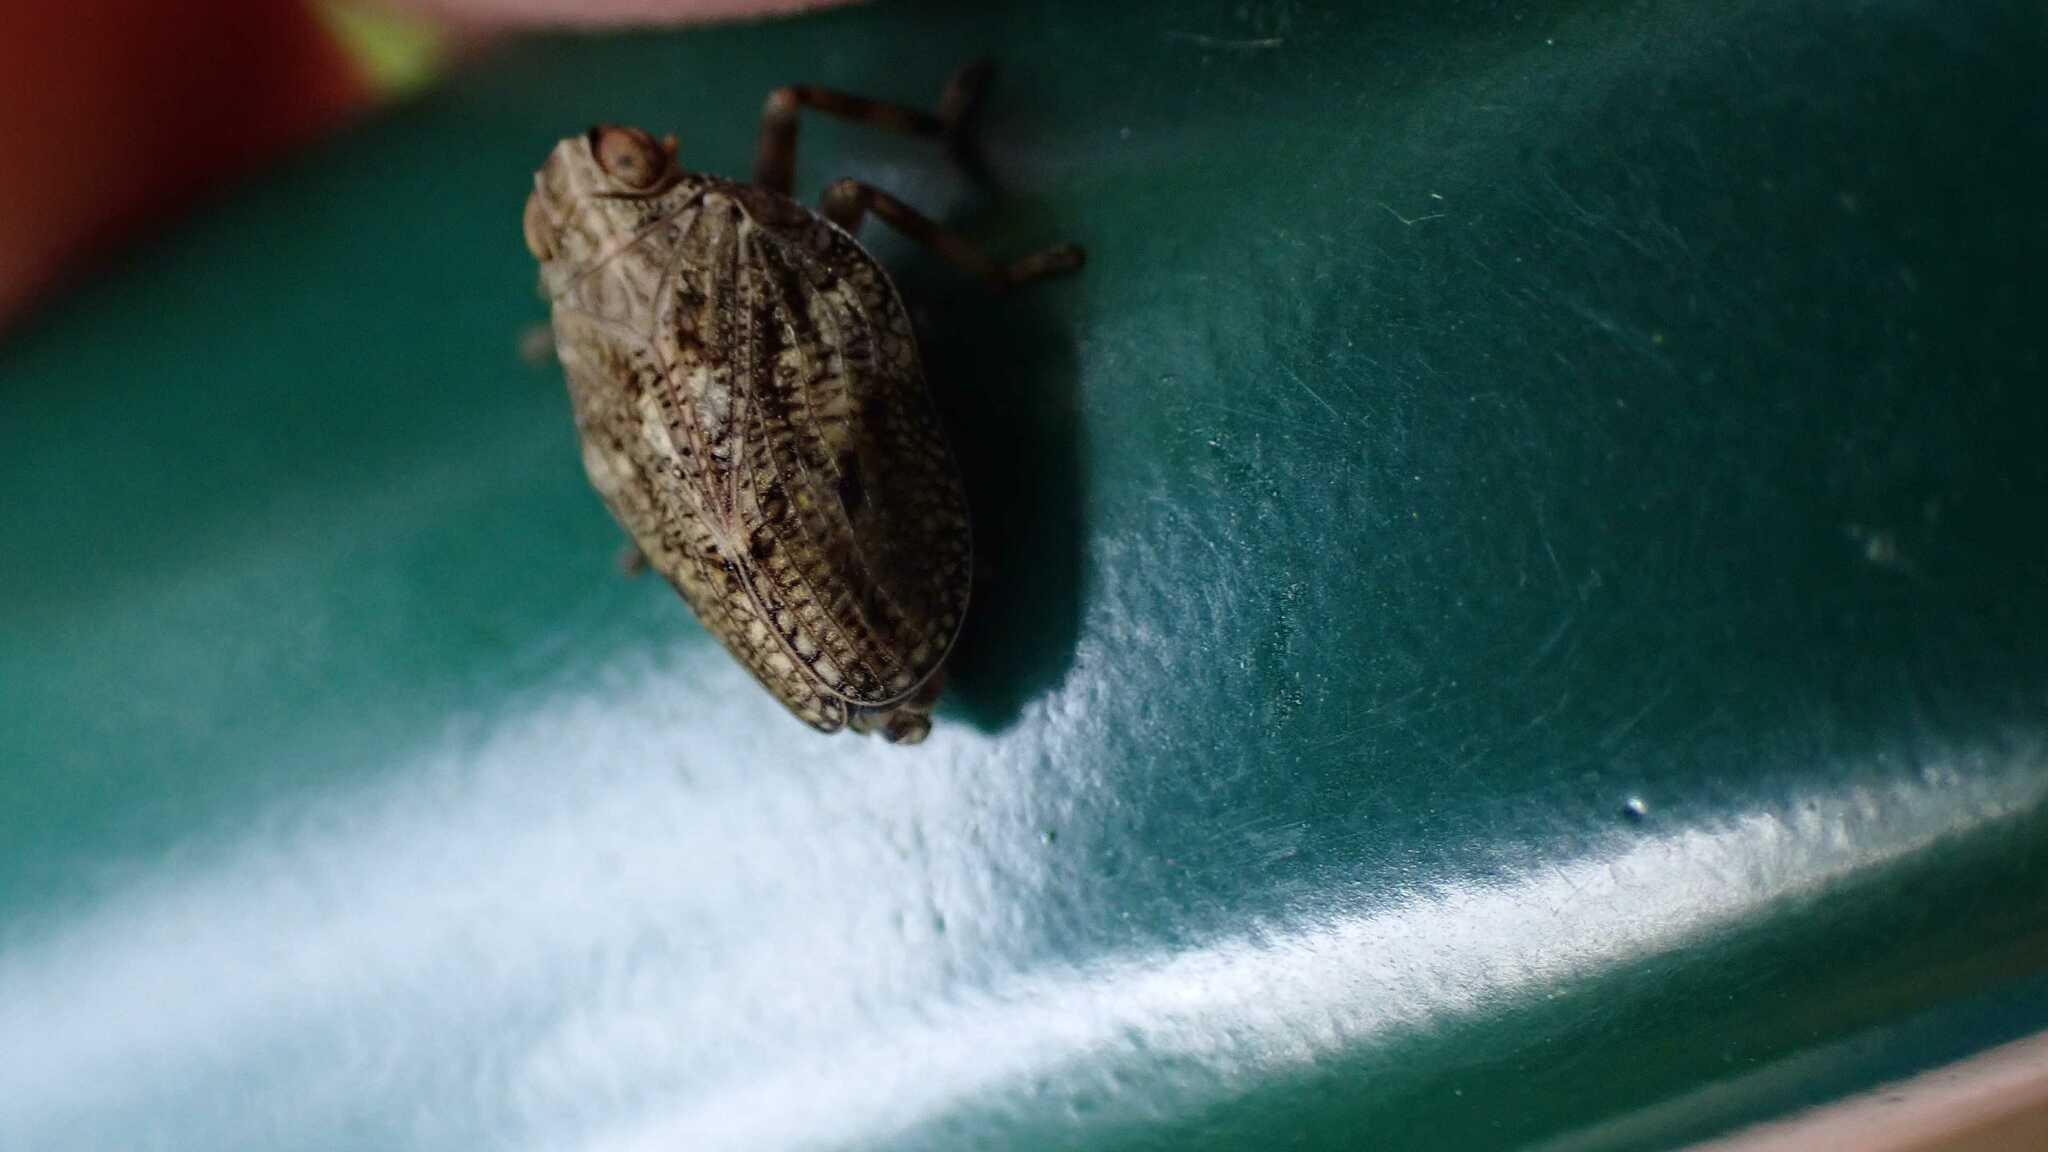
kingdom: Animalia
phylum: Arthropoda
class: Insecta
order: Hemiptera
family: Issidae
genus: Issus
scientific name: Issus coleoptratus
